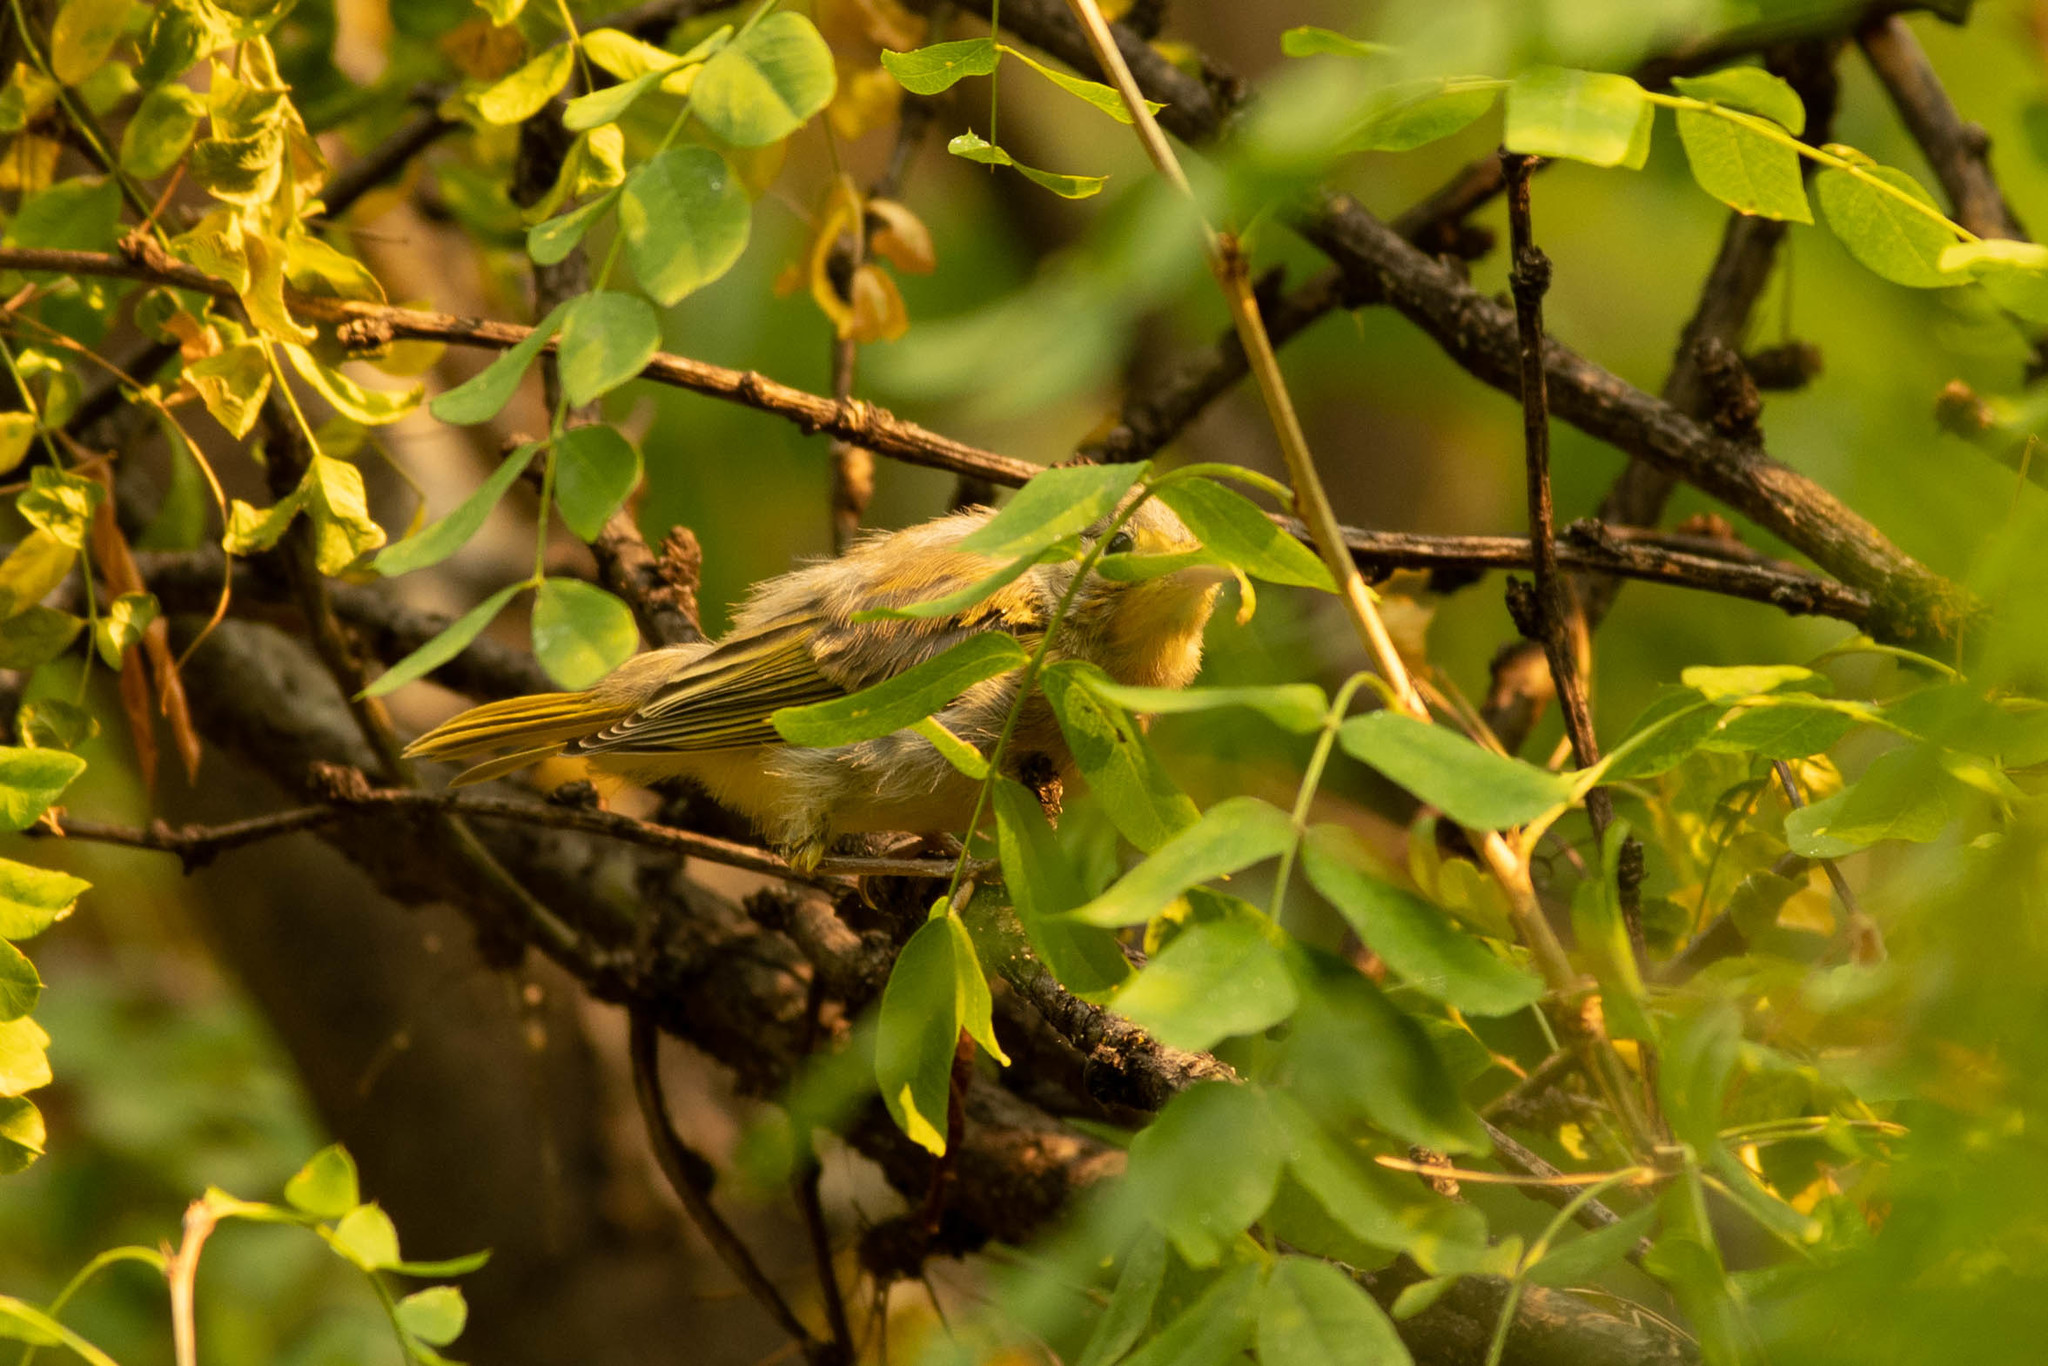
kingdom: Animalia
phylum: Chordata
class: Aves
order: Passeriformes
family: Parulidae
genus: Setophaga
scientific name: Setophaga petechia
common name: Yellow warbler
